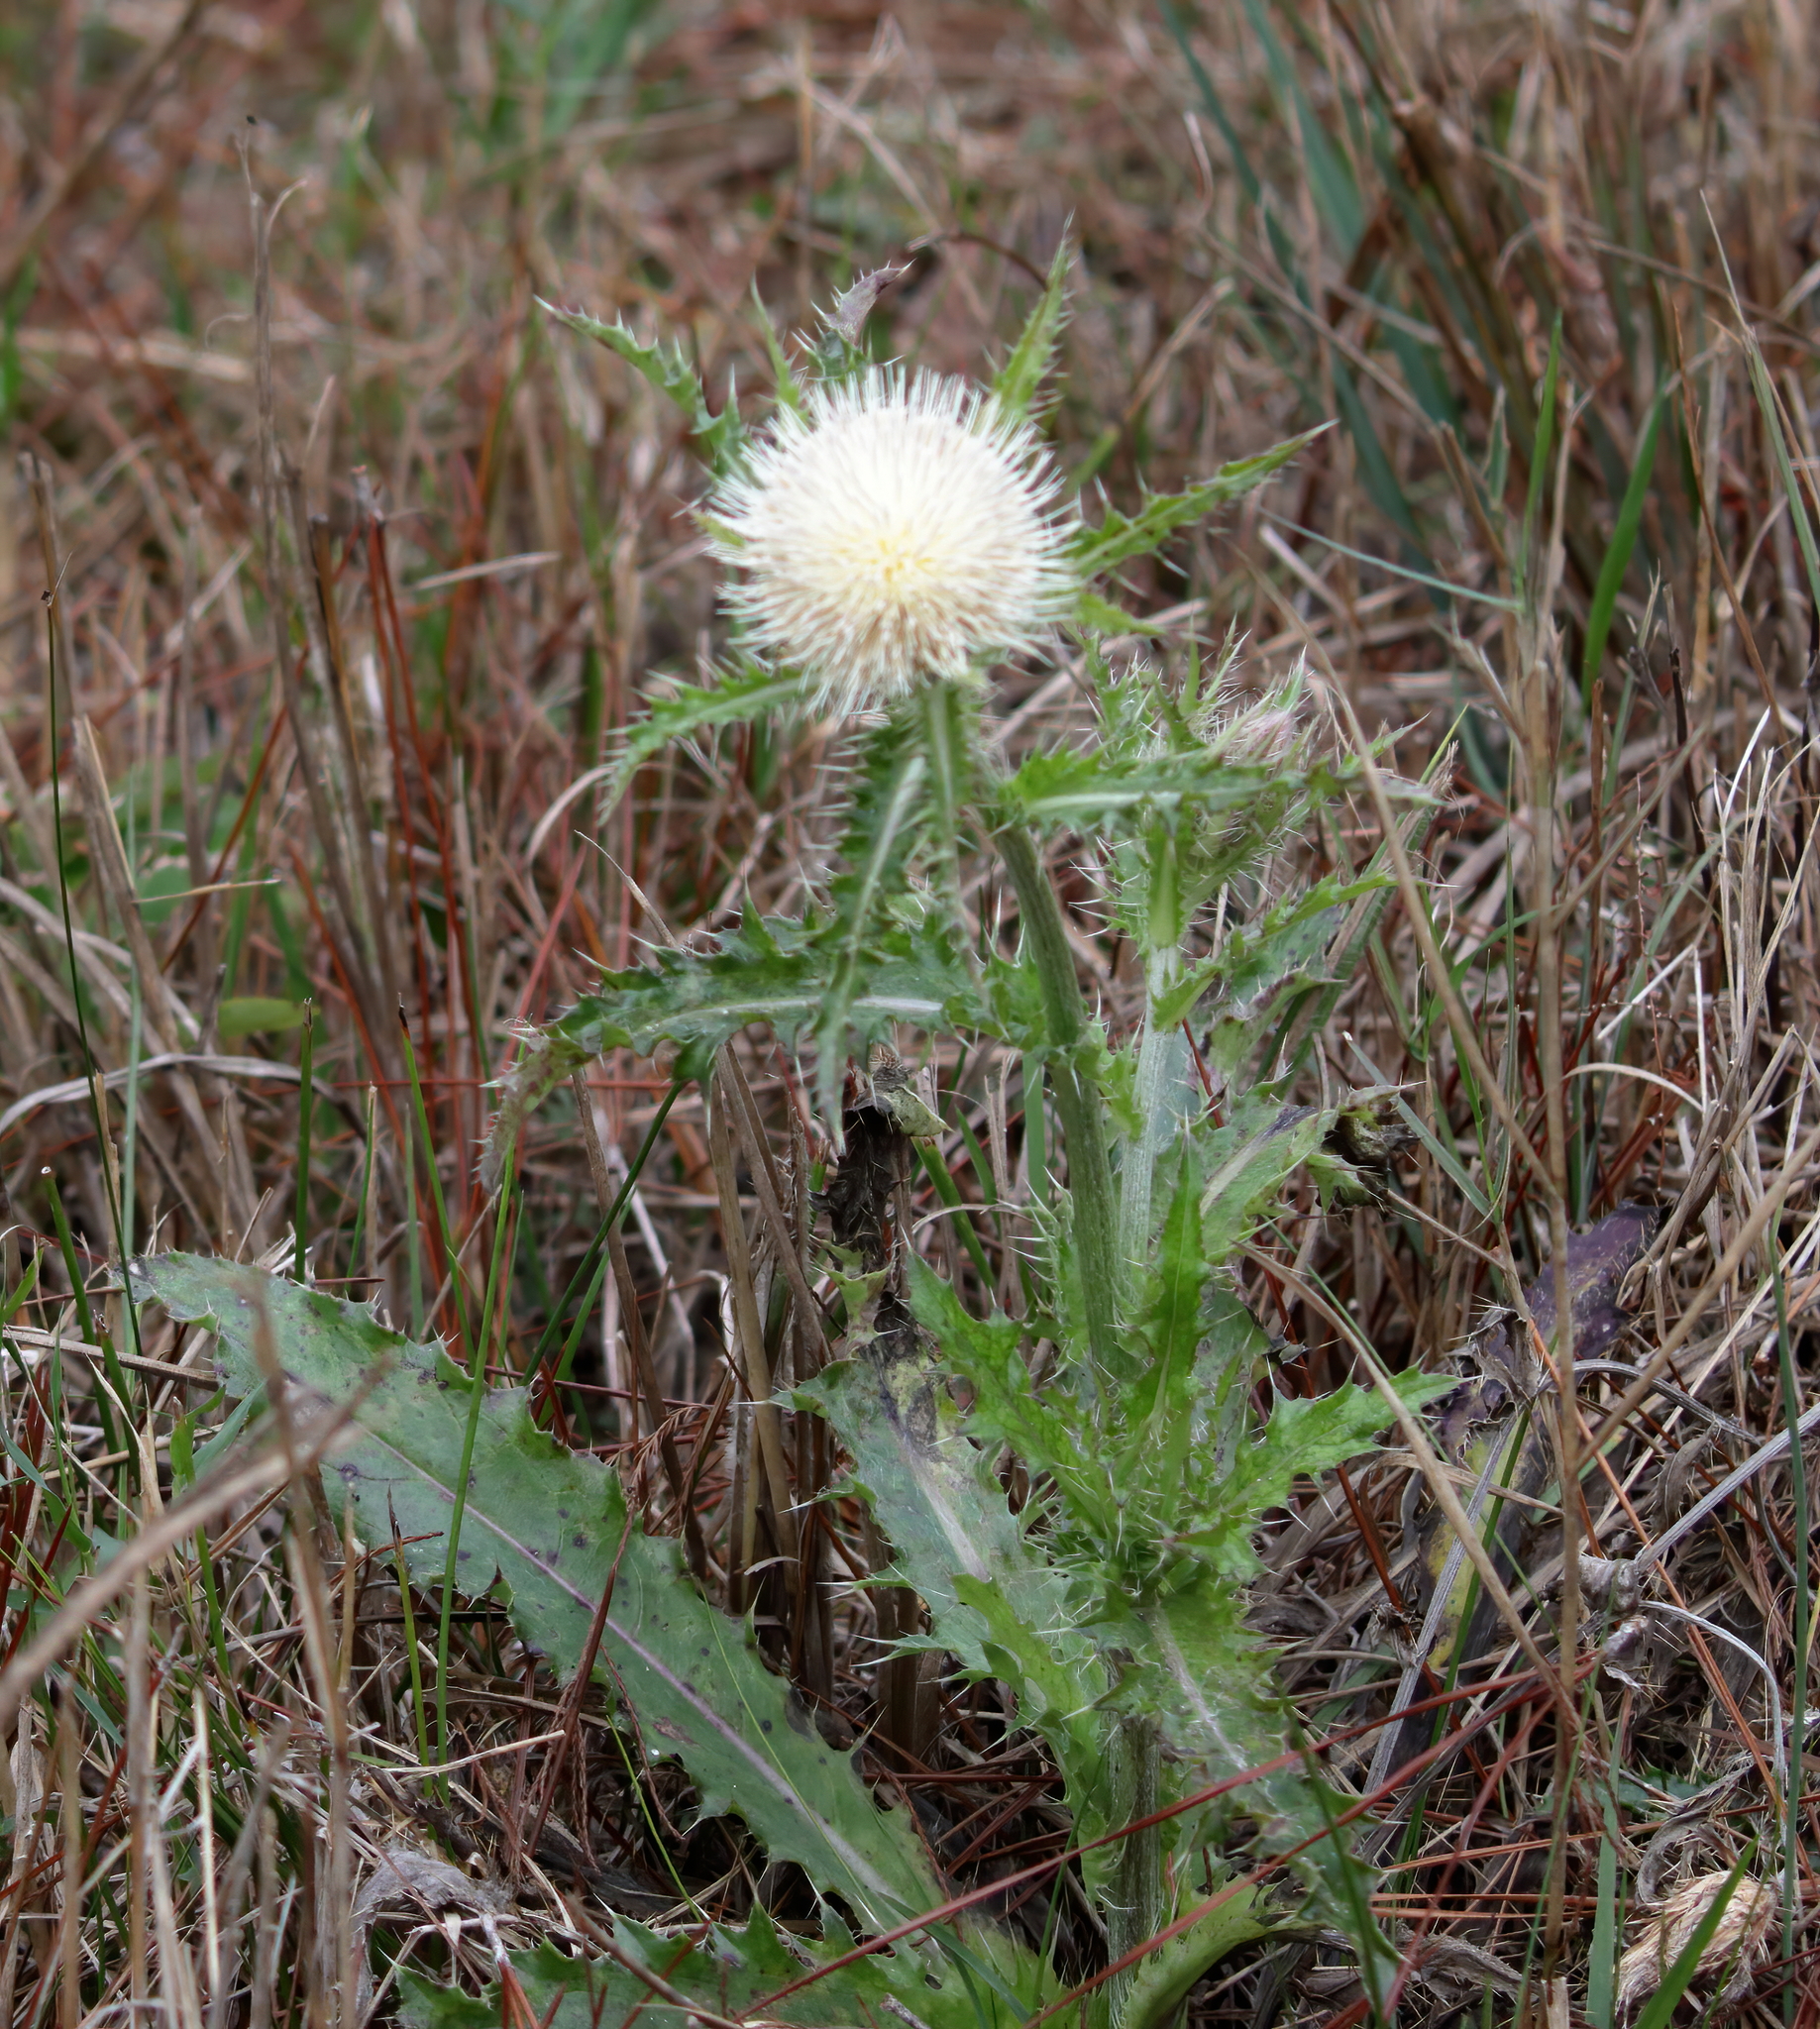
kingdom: Plantae
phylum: Tracheophyta
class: Magnoliopsida
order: Asterales
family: Asteraceae
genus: Cirsium
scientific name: Cirsium horridulum
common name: Bristly thistle
